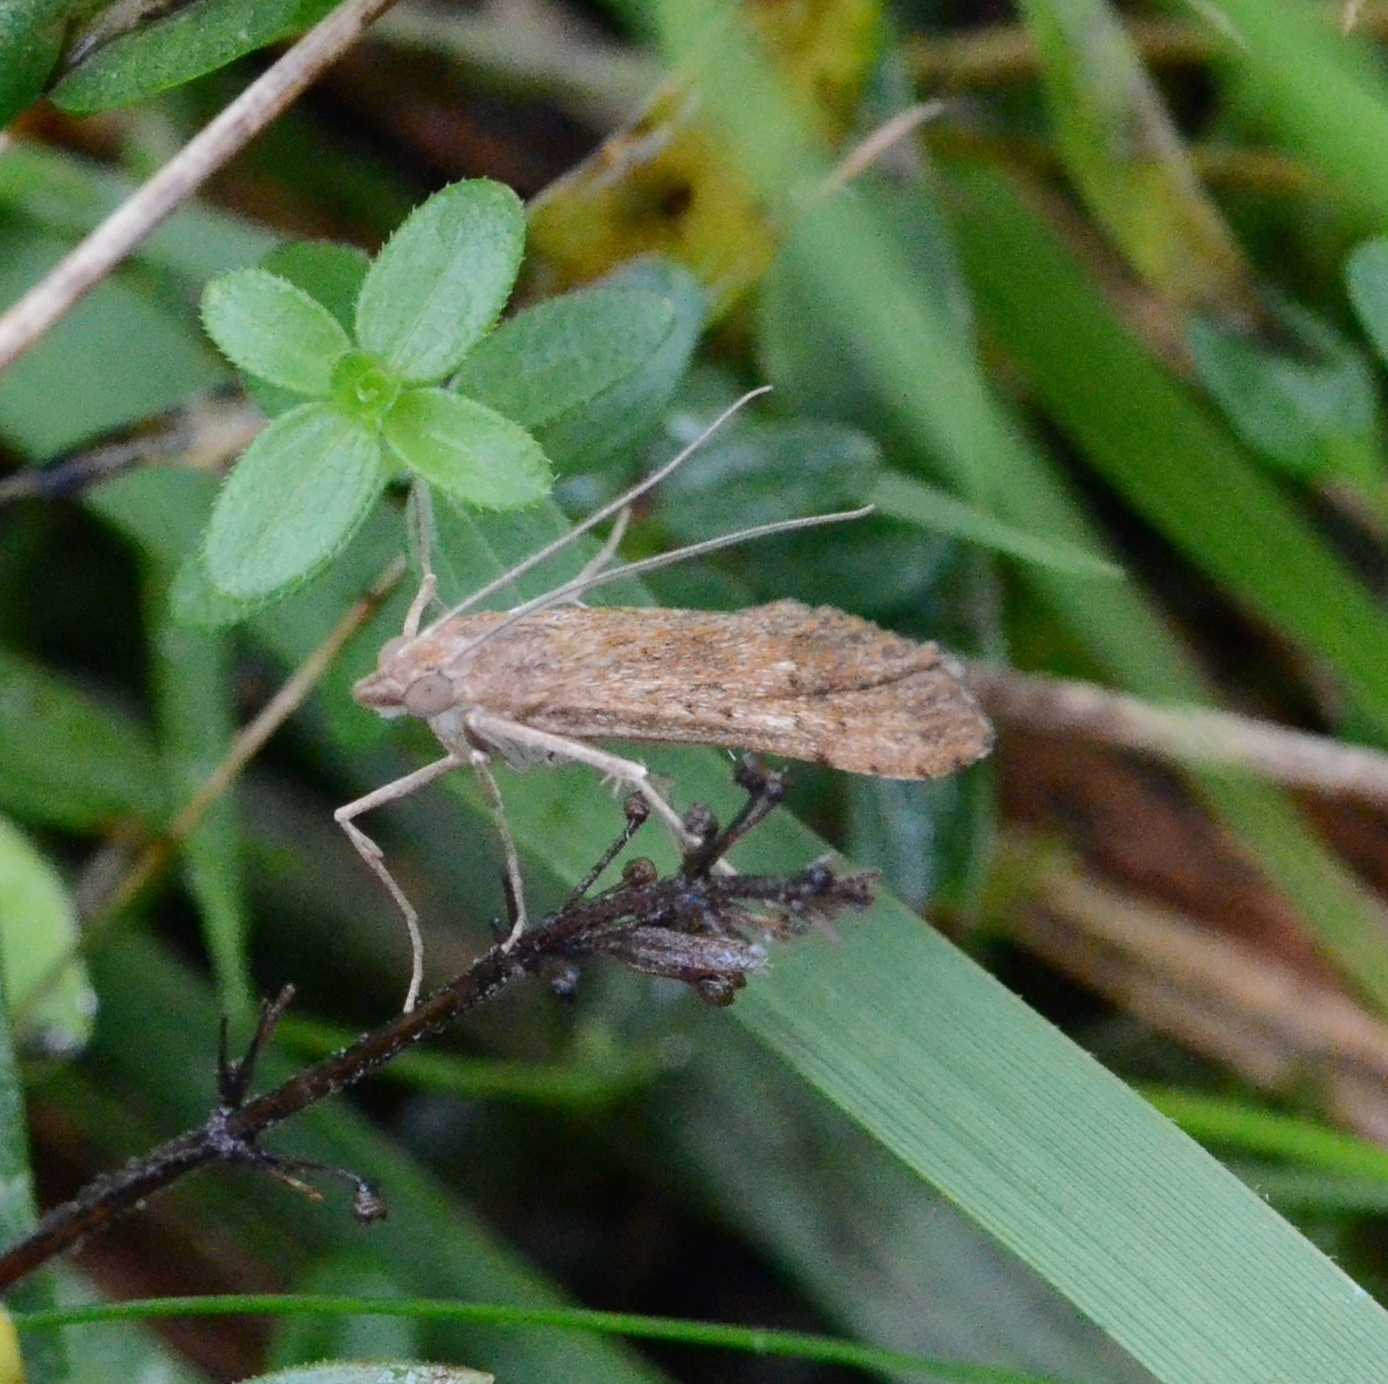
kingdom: Animalia
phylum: Arthropoda
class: Insecta
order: Lepidoptera
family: Crambidae
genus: Nomophila
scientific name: Nomophila noctuella
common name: Rush veneer
